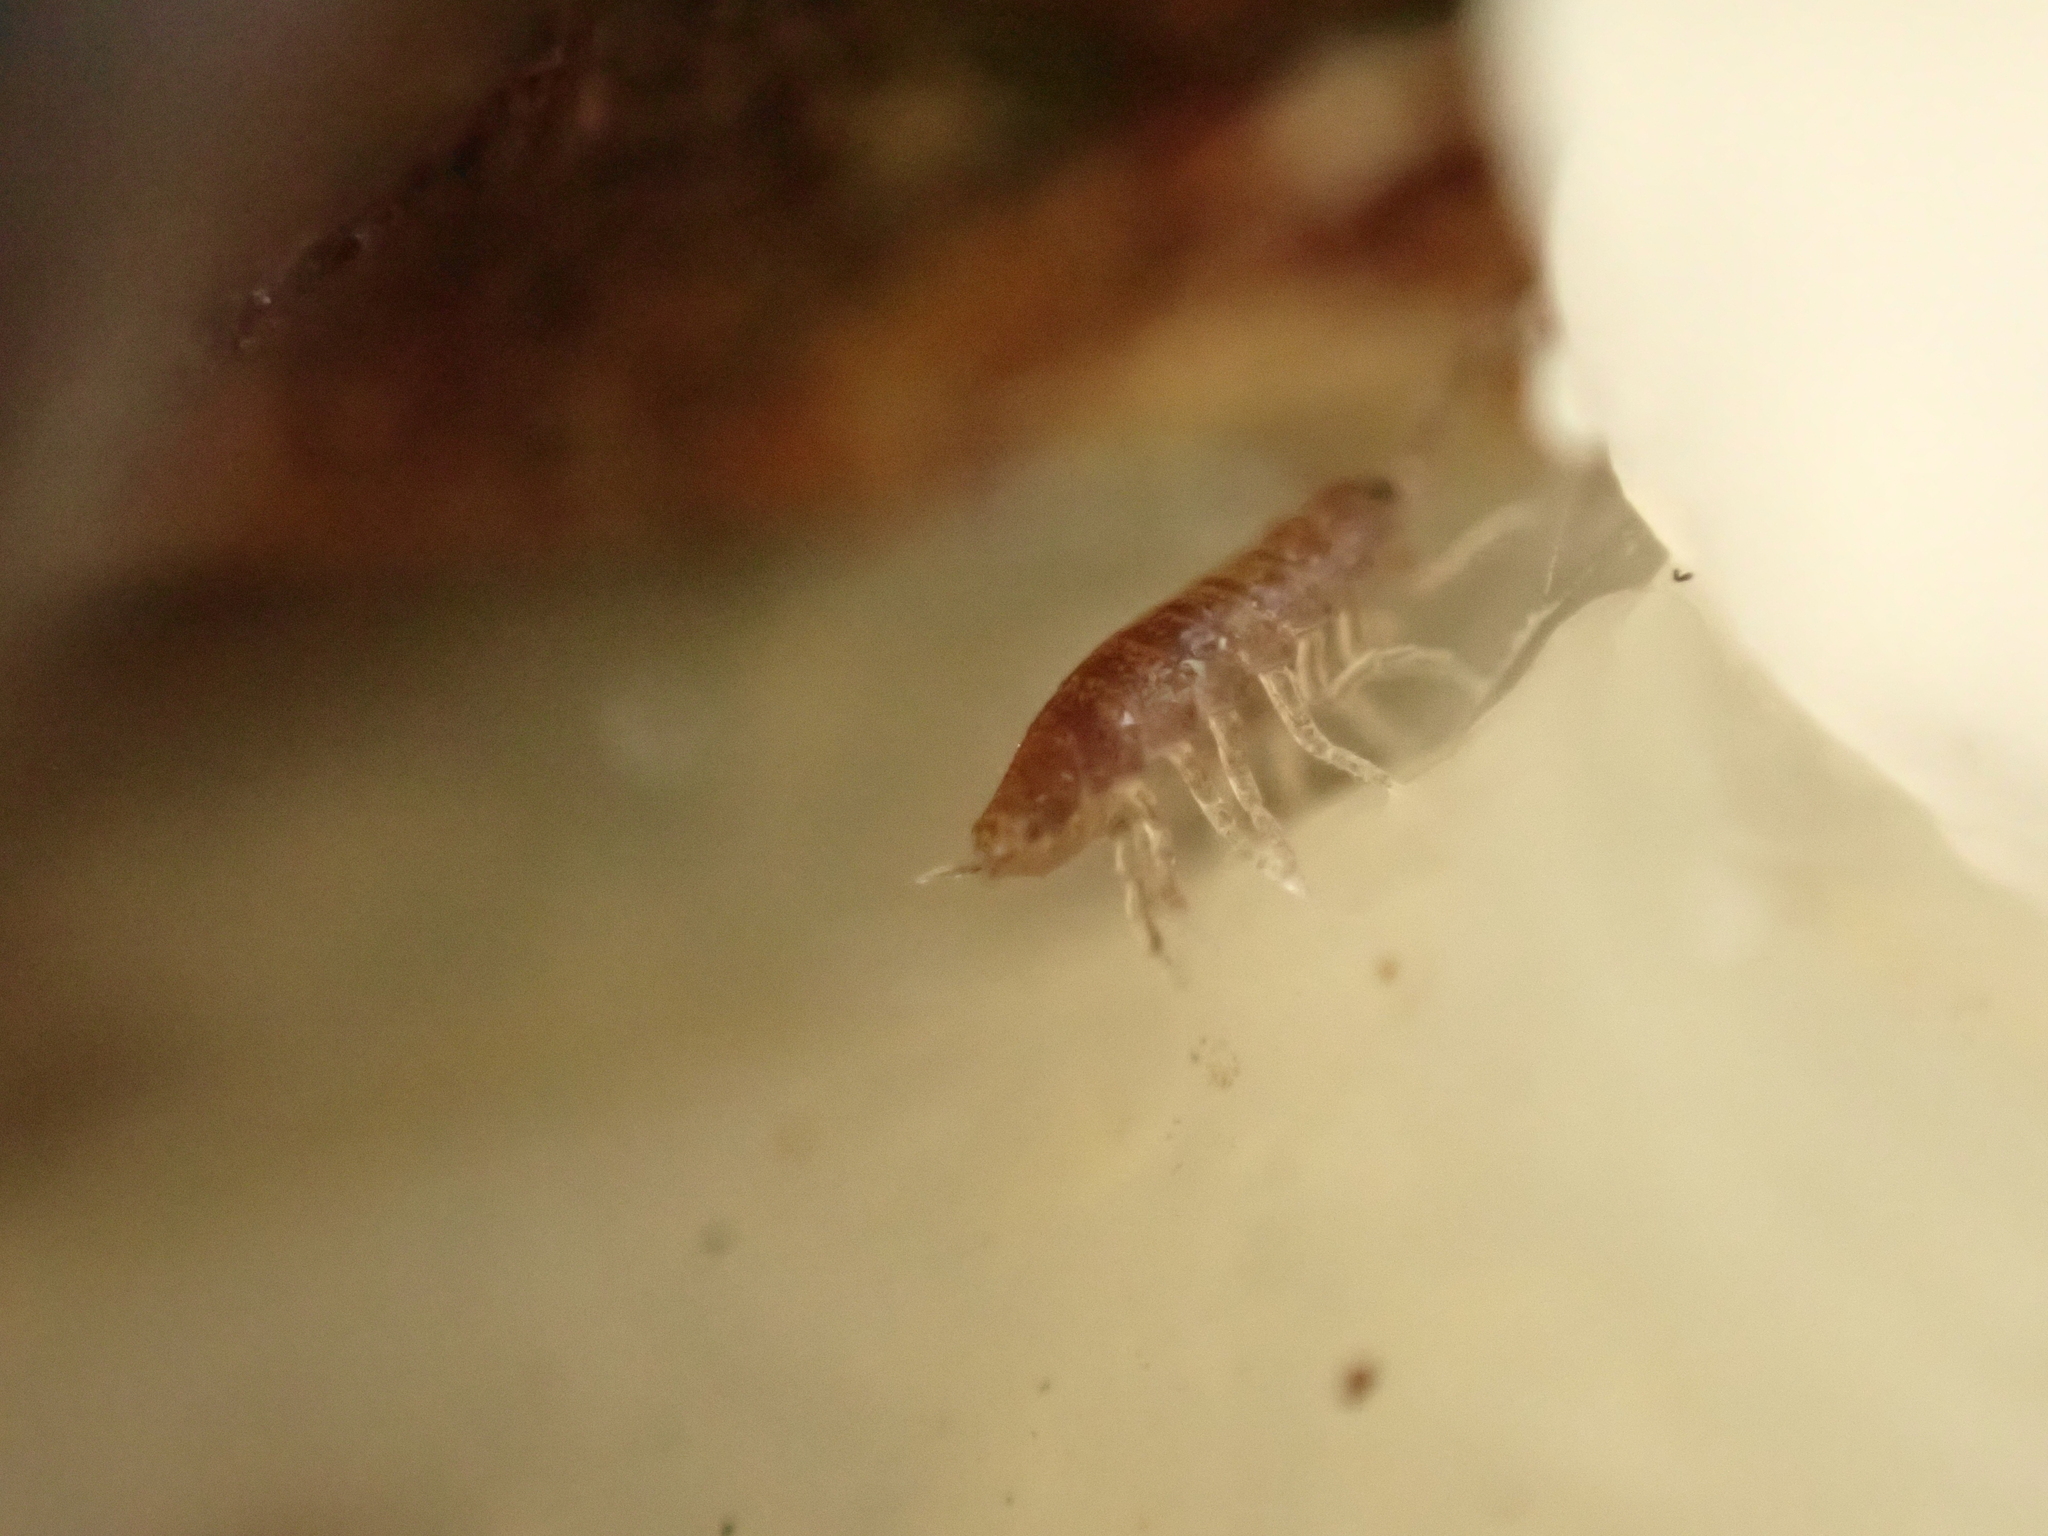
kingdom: Animalia
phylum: Arthropoda
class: Malacostraca
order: Isopoda
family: Philosciidae
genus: Floridoscia
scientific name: Floridoscia fusca
